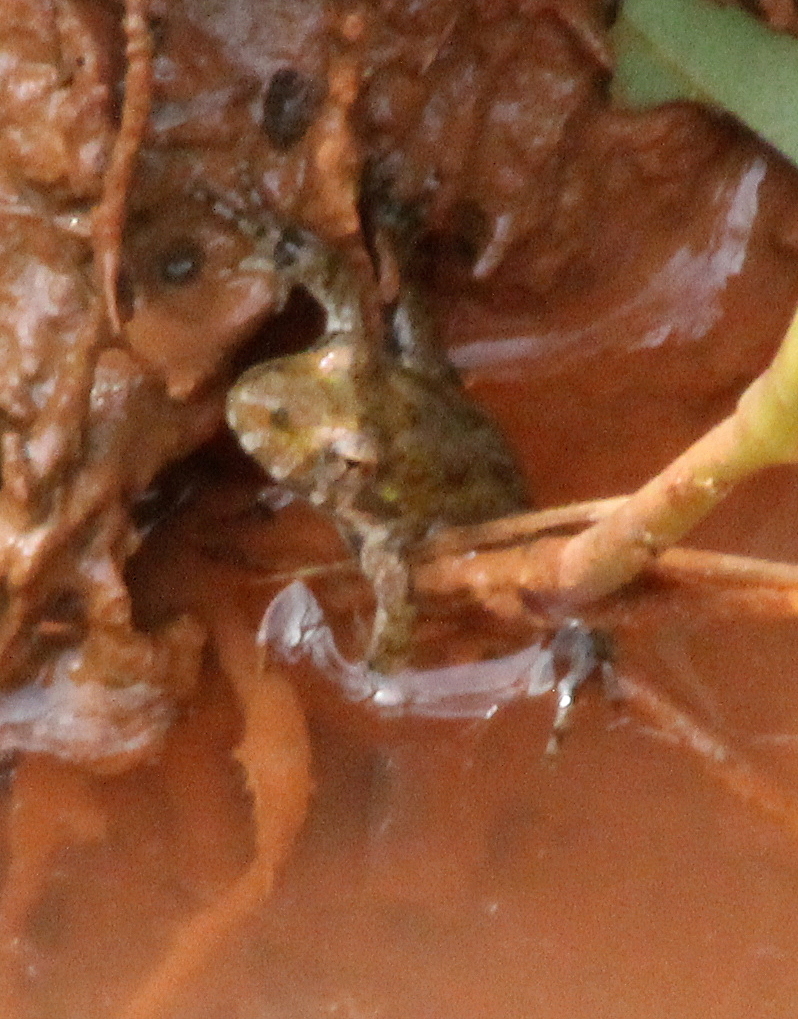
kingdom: Animalia
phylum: Chordata
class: Amphibia
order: Anura
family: Hylidae
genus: Acris
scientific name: Acris blanchardi
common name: Blanchard's cricket frog
